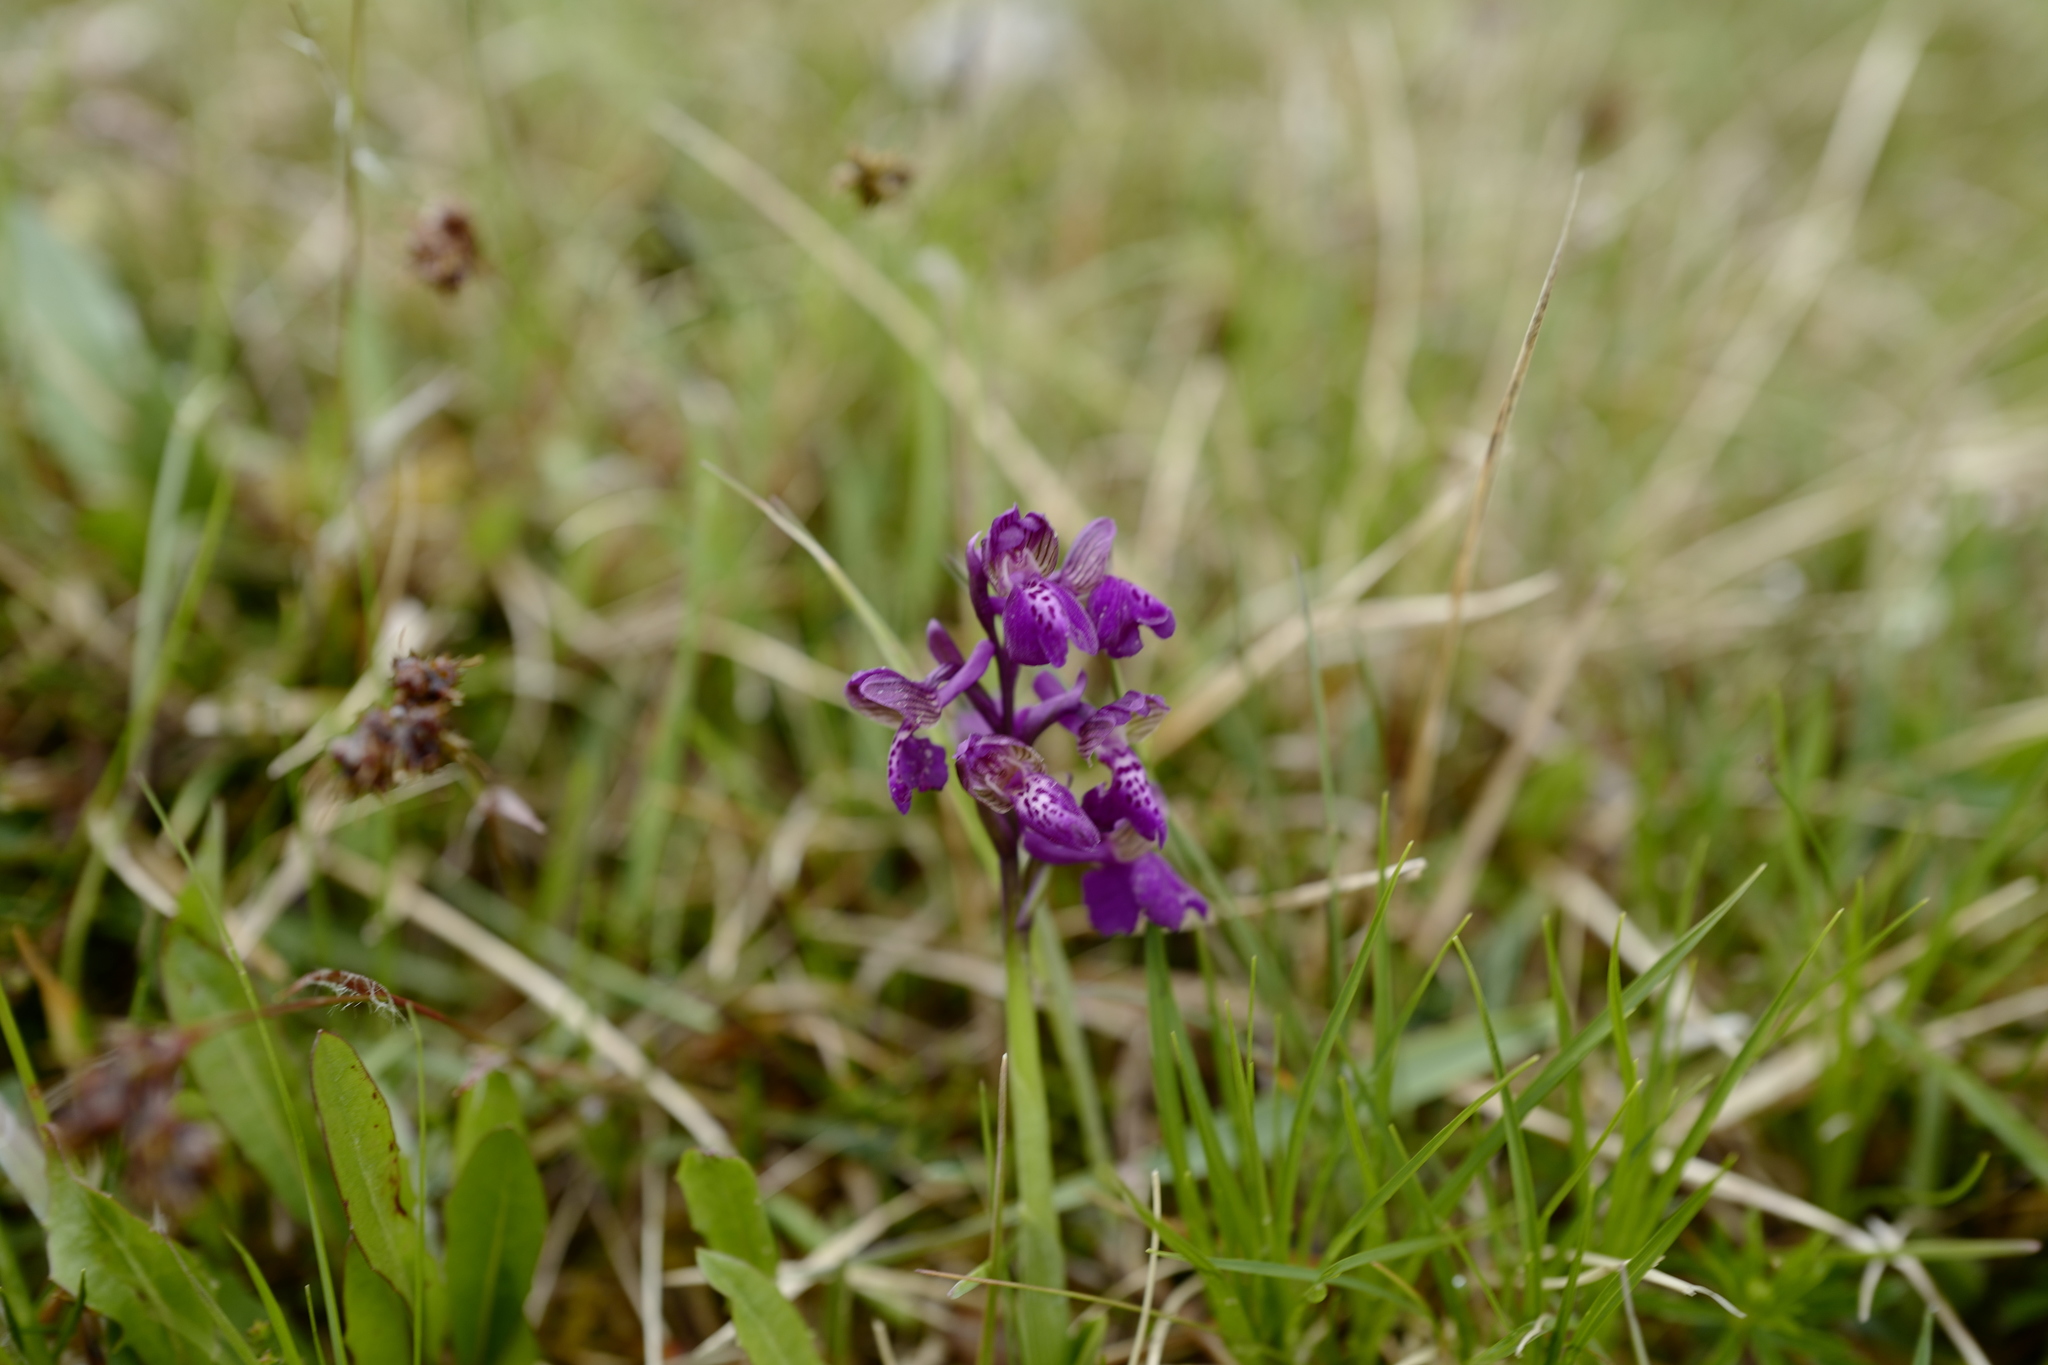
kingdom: Plantae
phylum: Tracheophyta
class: Liliopsida
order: Asparagales
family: Orchidaceae
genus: Anacamptis
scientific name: Anacamptis morio
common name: Green-winged orchid
